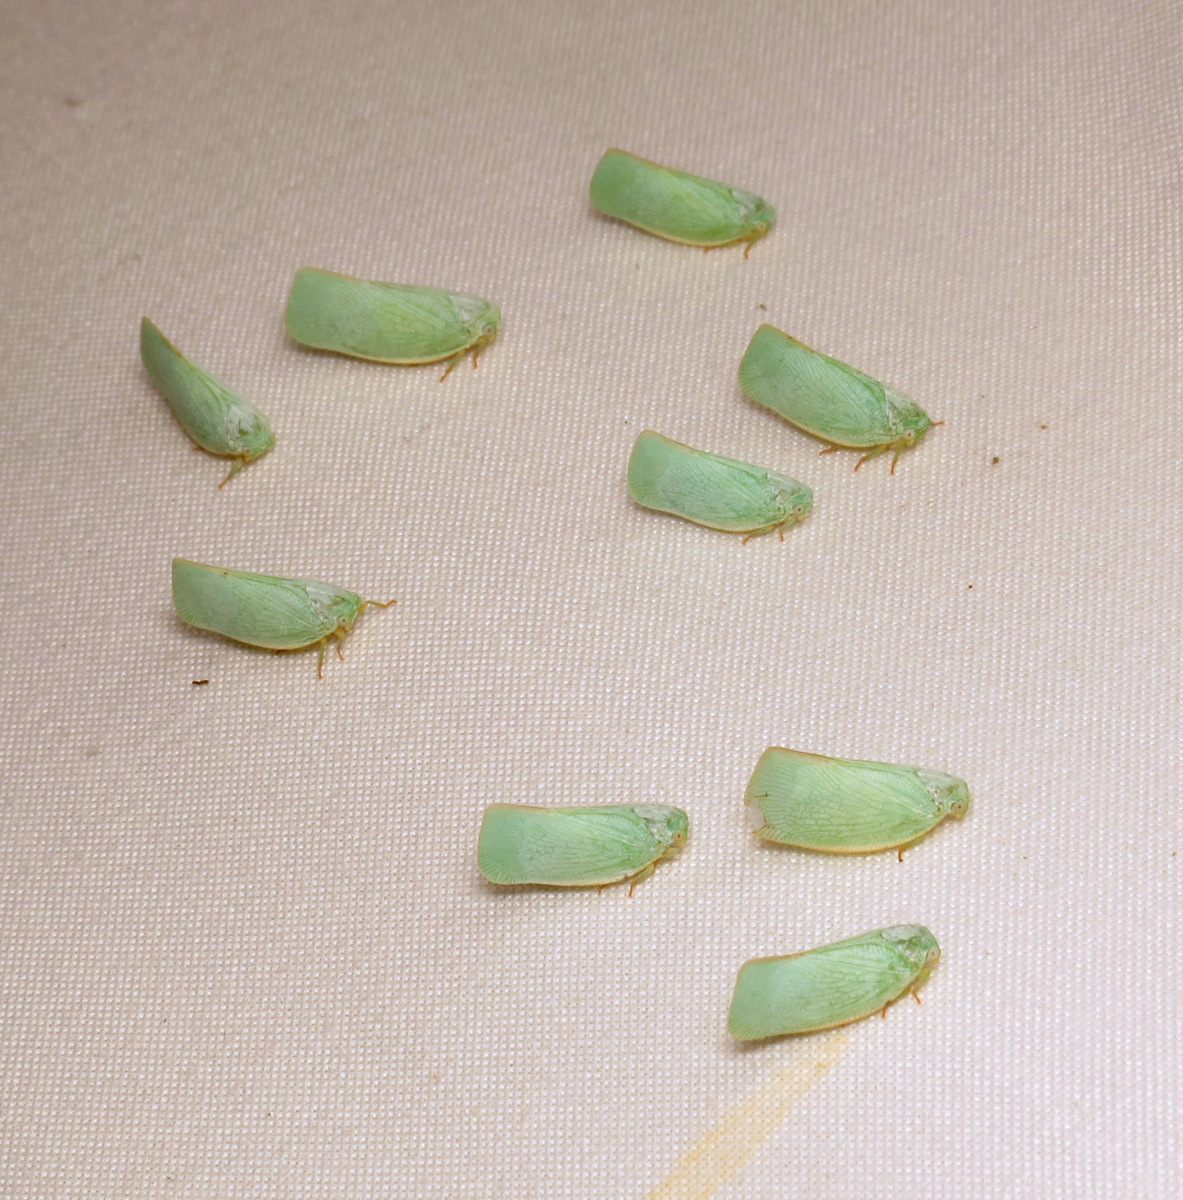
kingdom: Animalia
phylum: Arthropoda
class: Insecta
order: Hemiptera
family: Flatidae
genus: Flatormenis
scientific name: Flatormenis proxima
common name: Northern flatid planthopper
